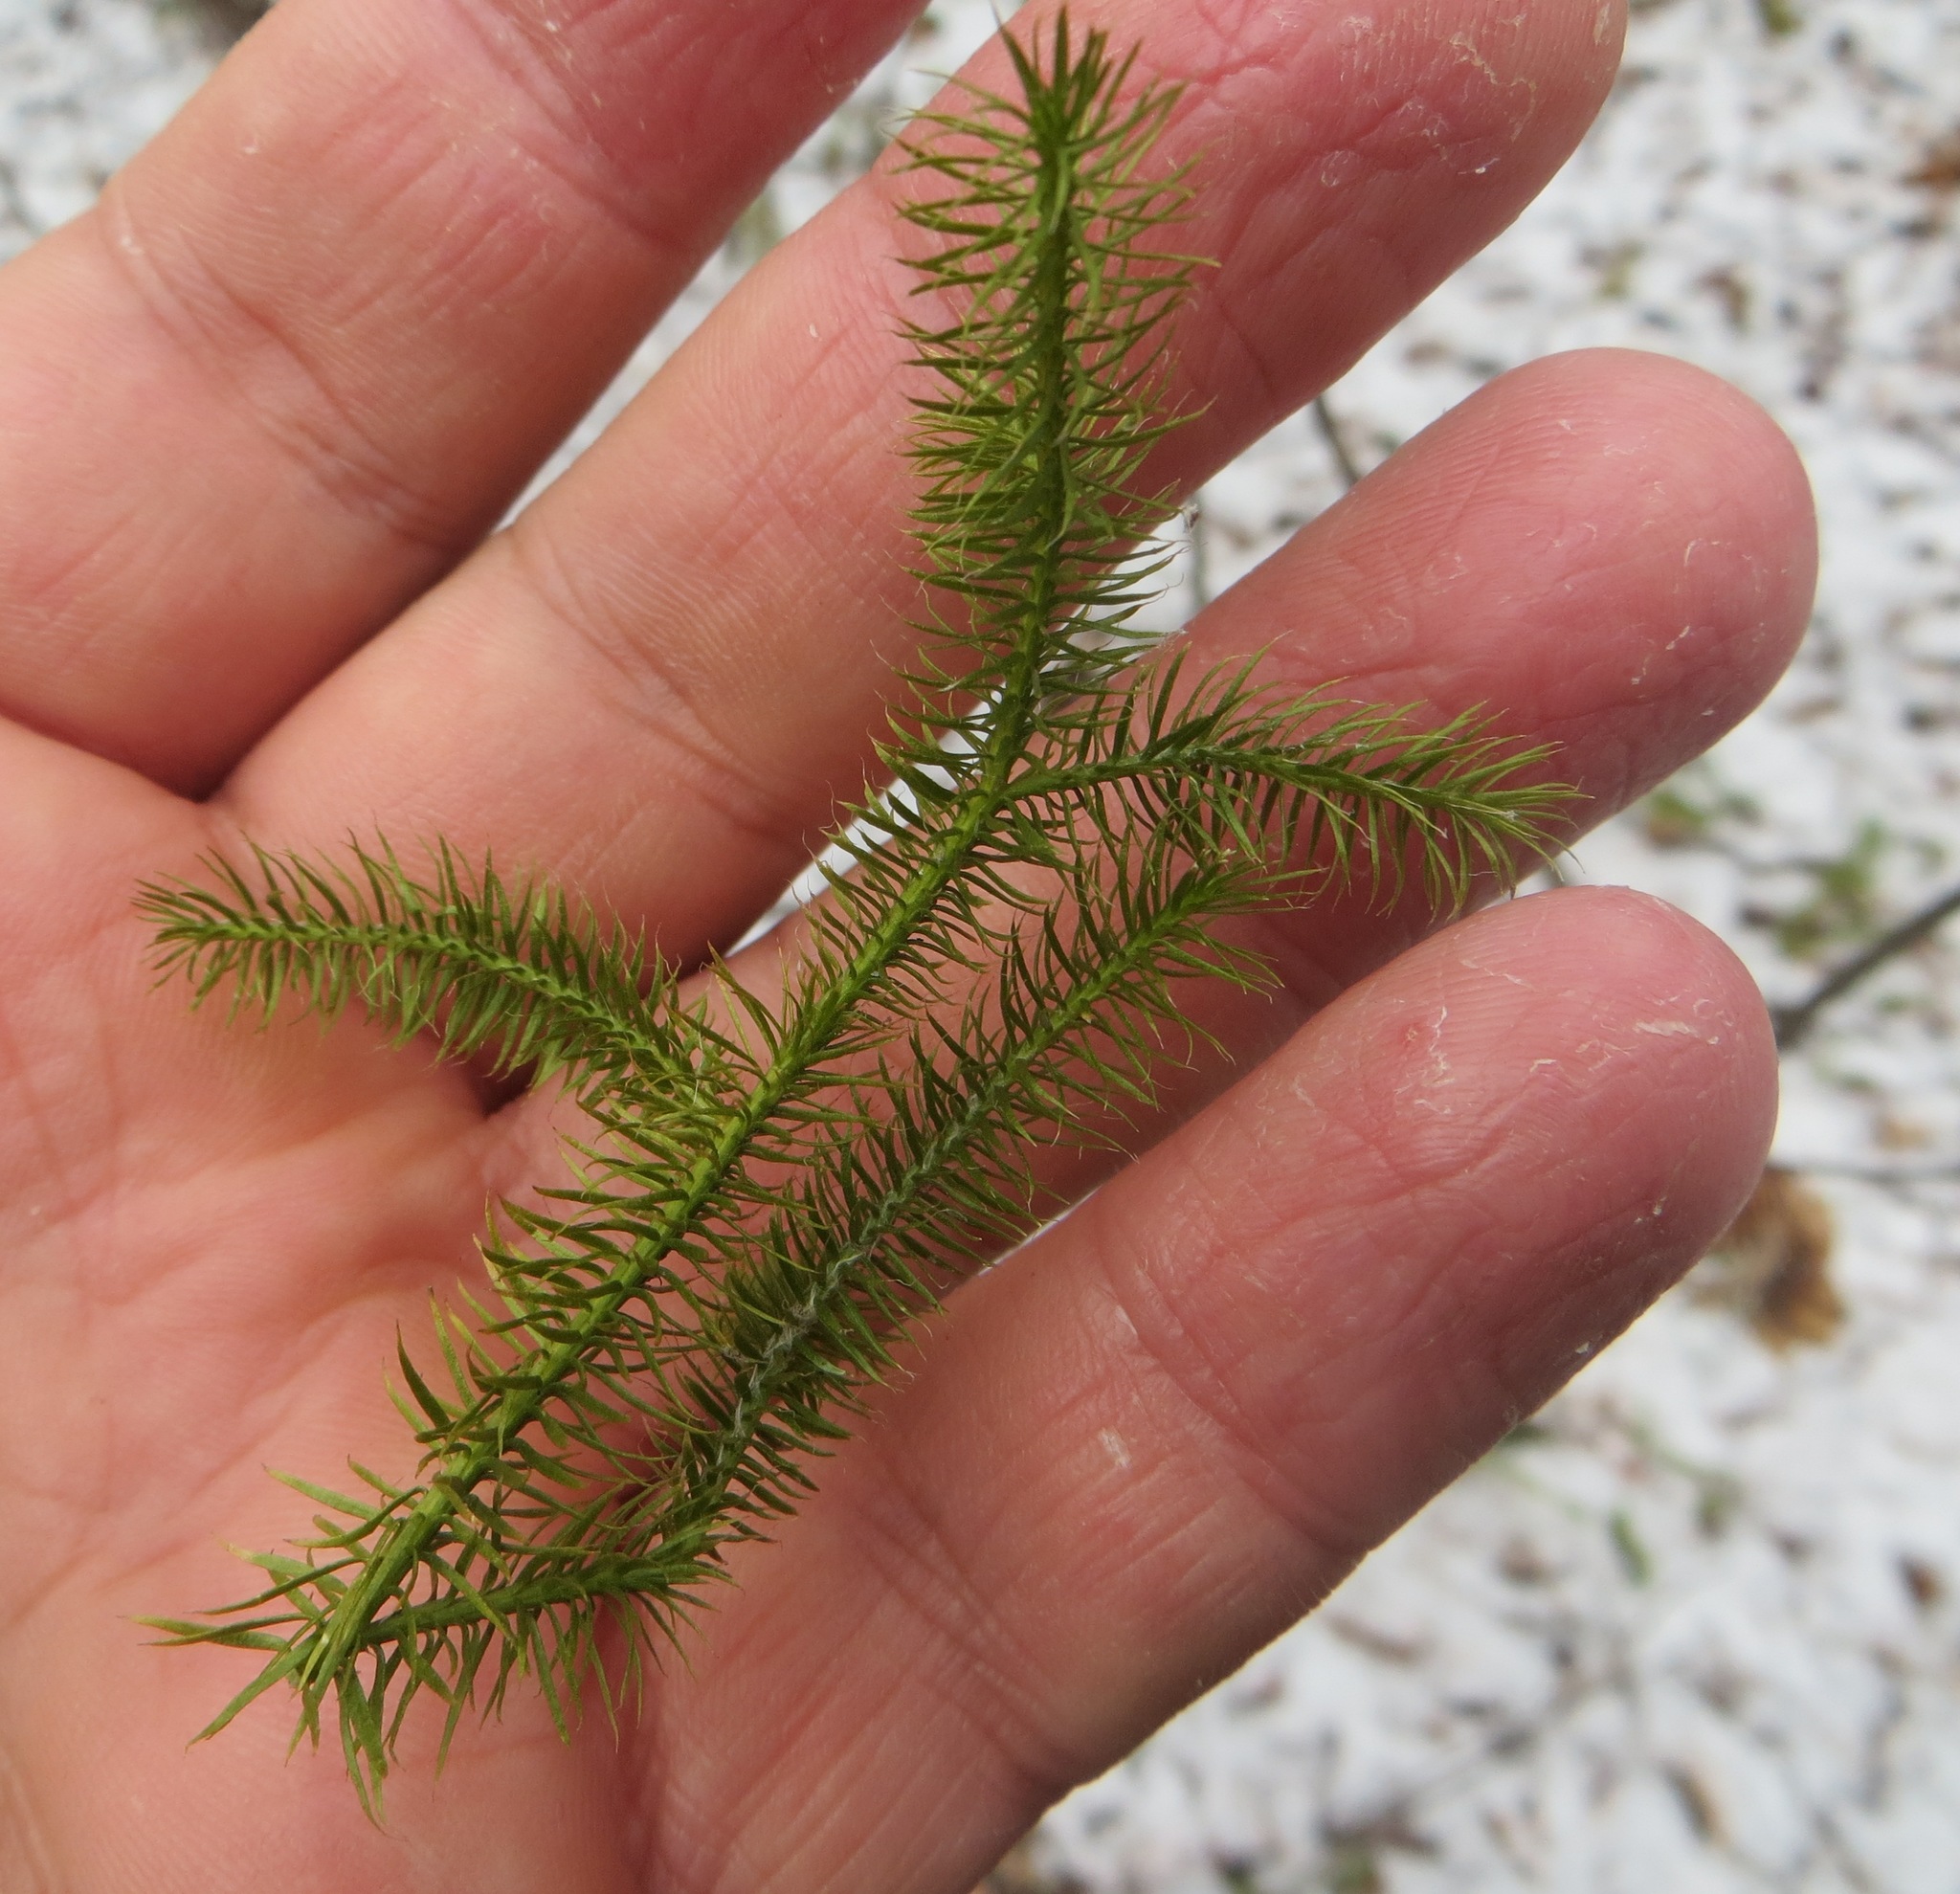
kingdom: Plantae
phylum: Tracheophyta
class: Lycopodiopsida
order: Lycopodiales
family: Lycopodiaceae
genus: Lycopodium
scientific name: Lycopodium clavatum
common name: Stag's-horn clubmoss
